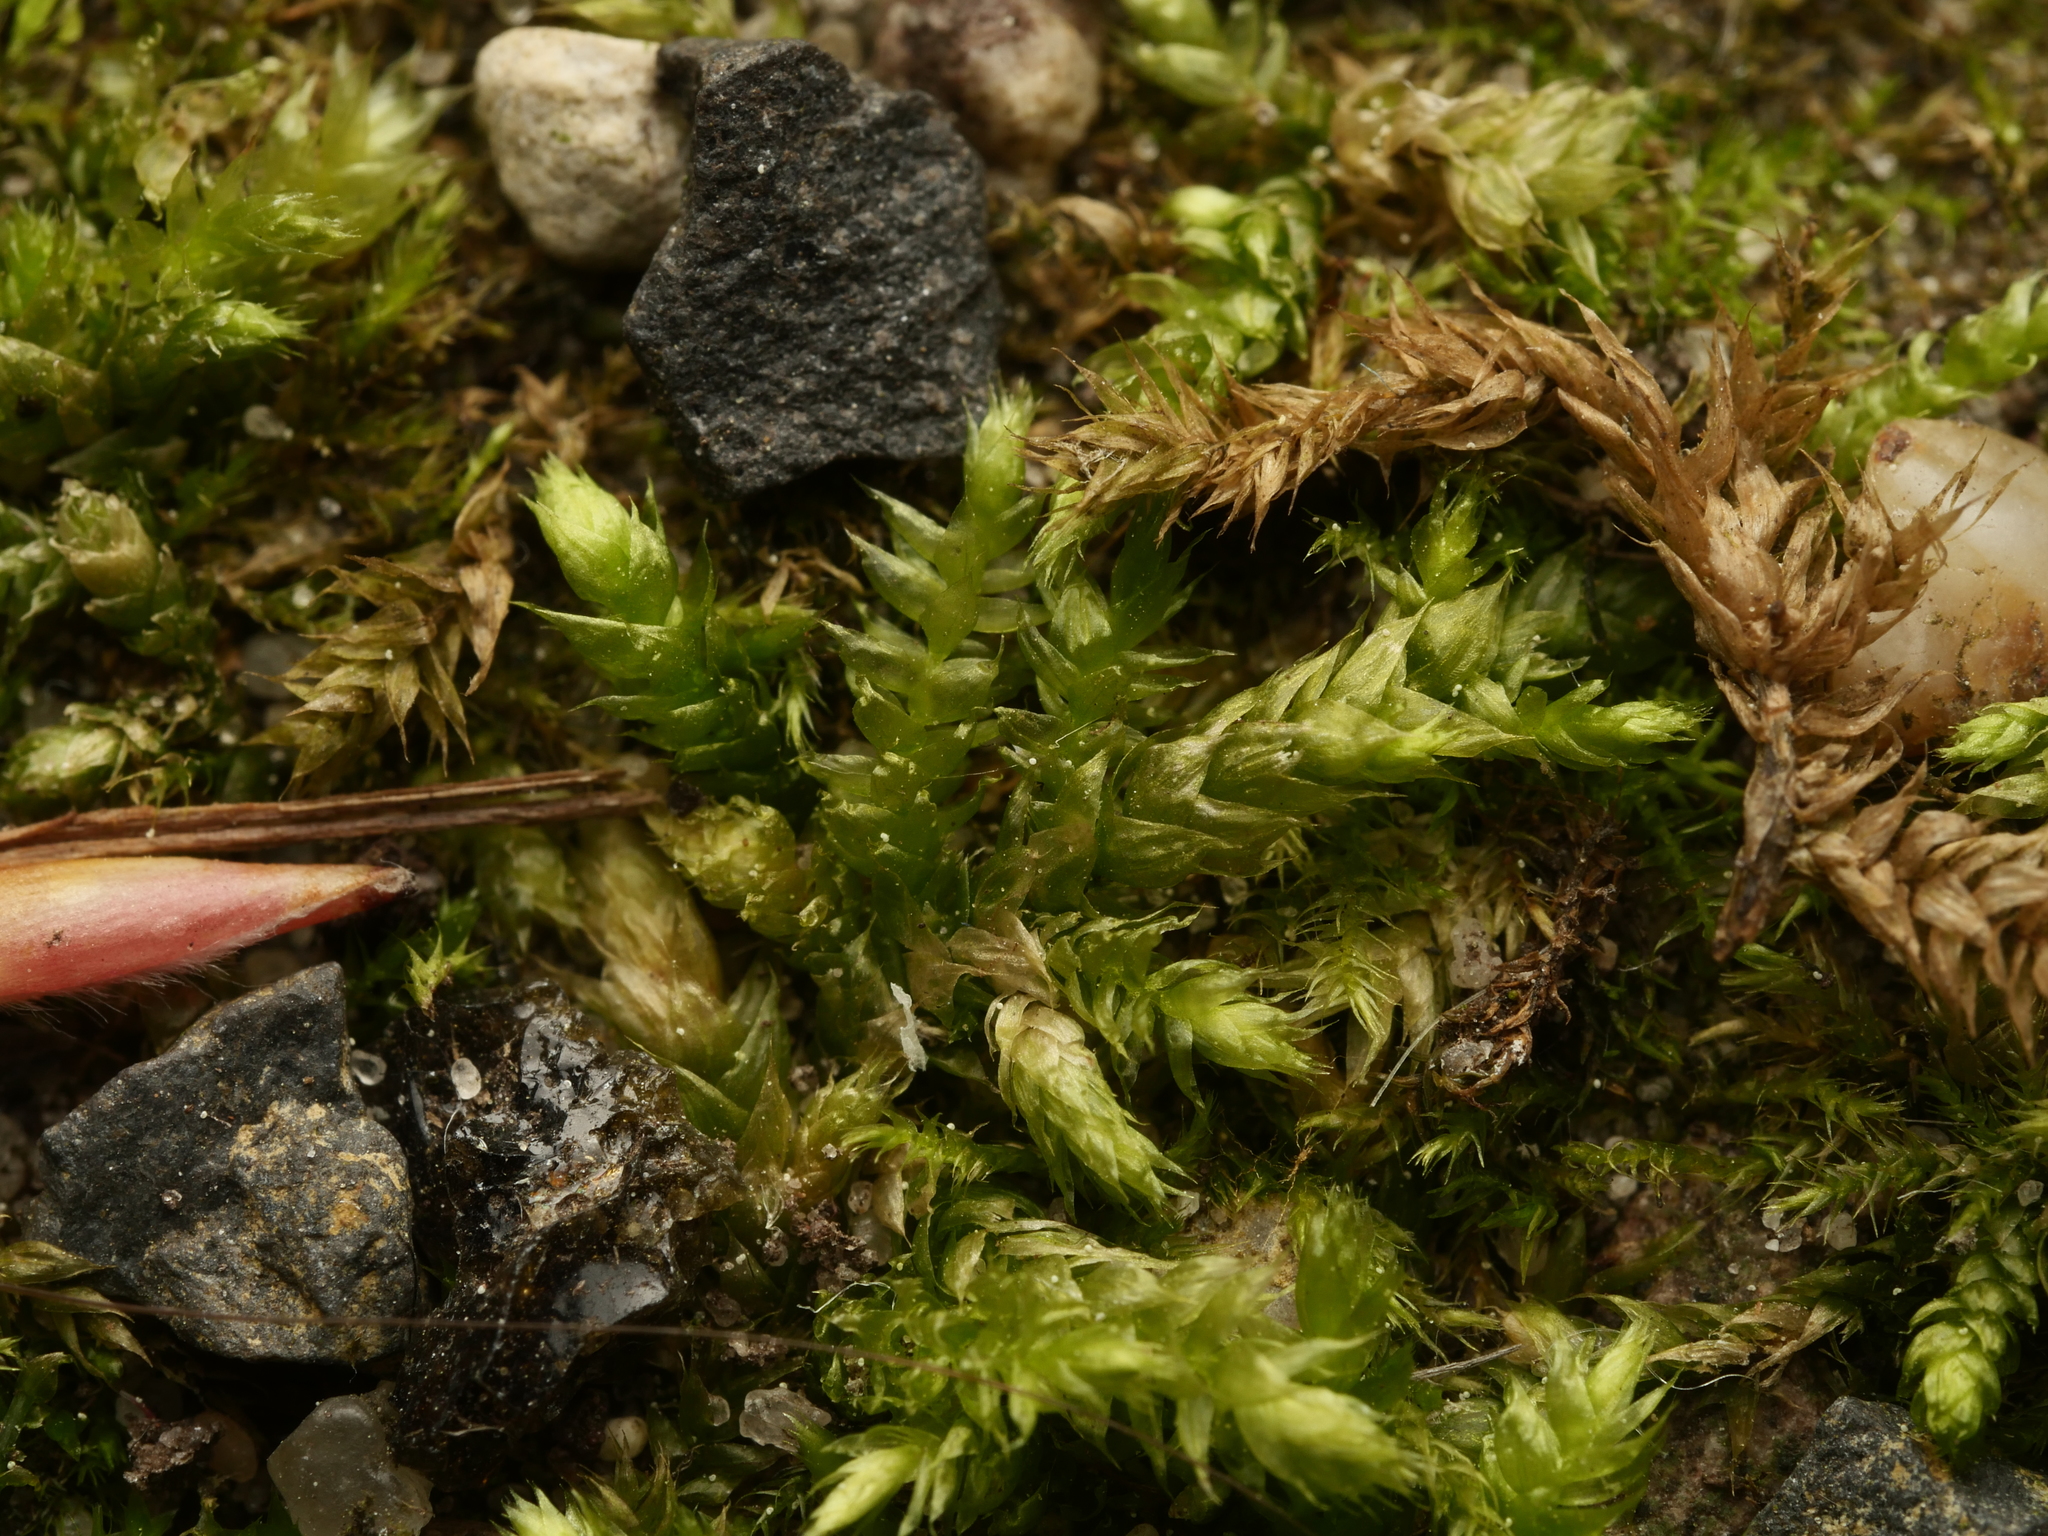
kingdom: Plantae
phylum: Bryophyta
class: Bryopsida
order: Hypnales
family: Brachytheciaceae
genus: Brachythecium
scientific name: Brachythecium rutabulum
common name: Rough-stalked feather-moss
